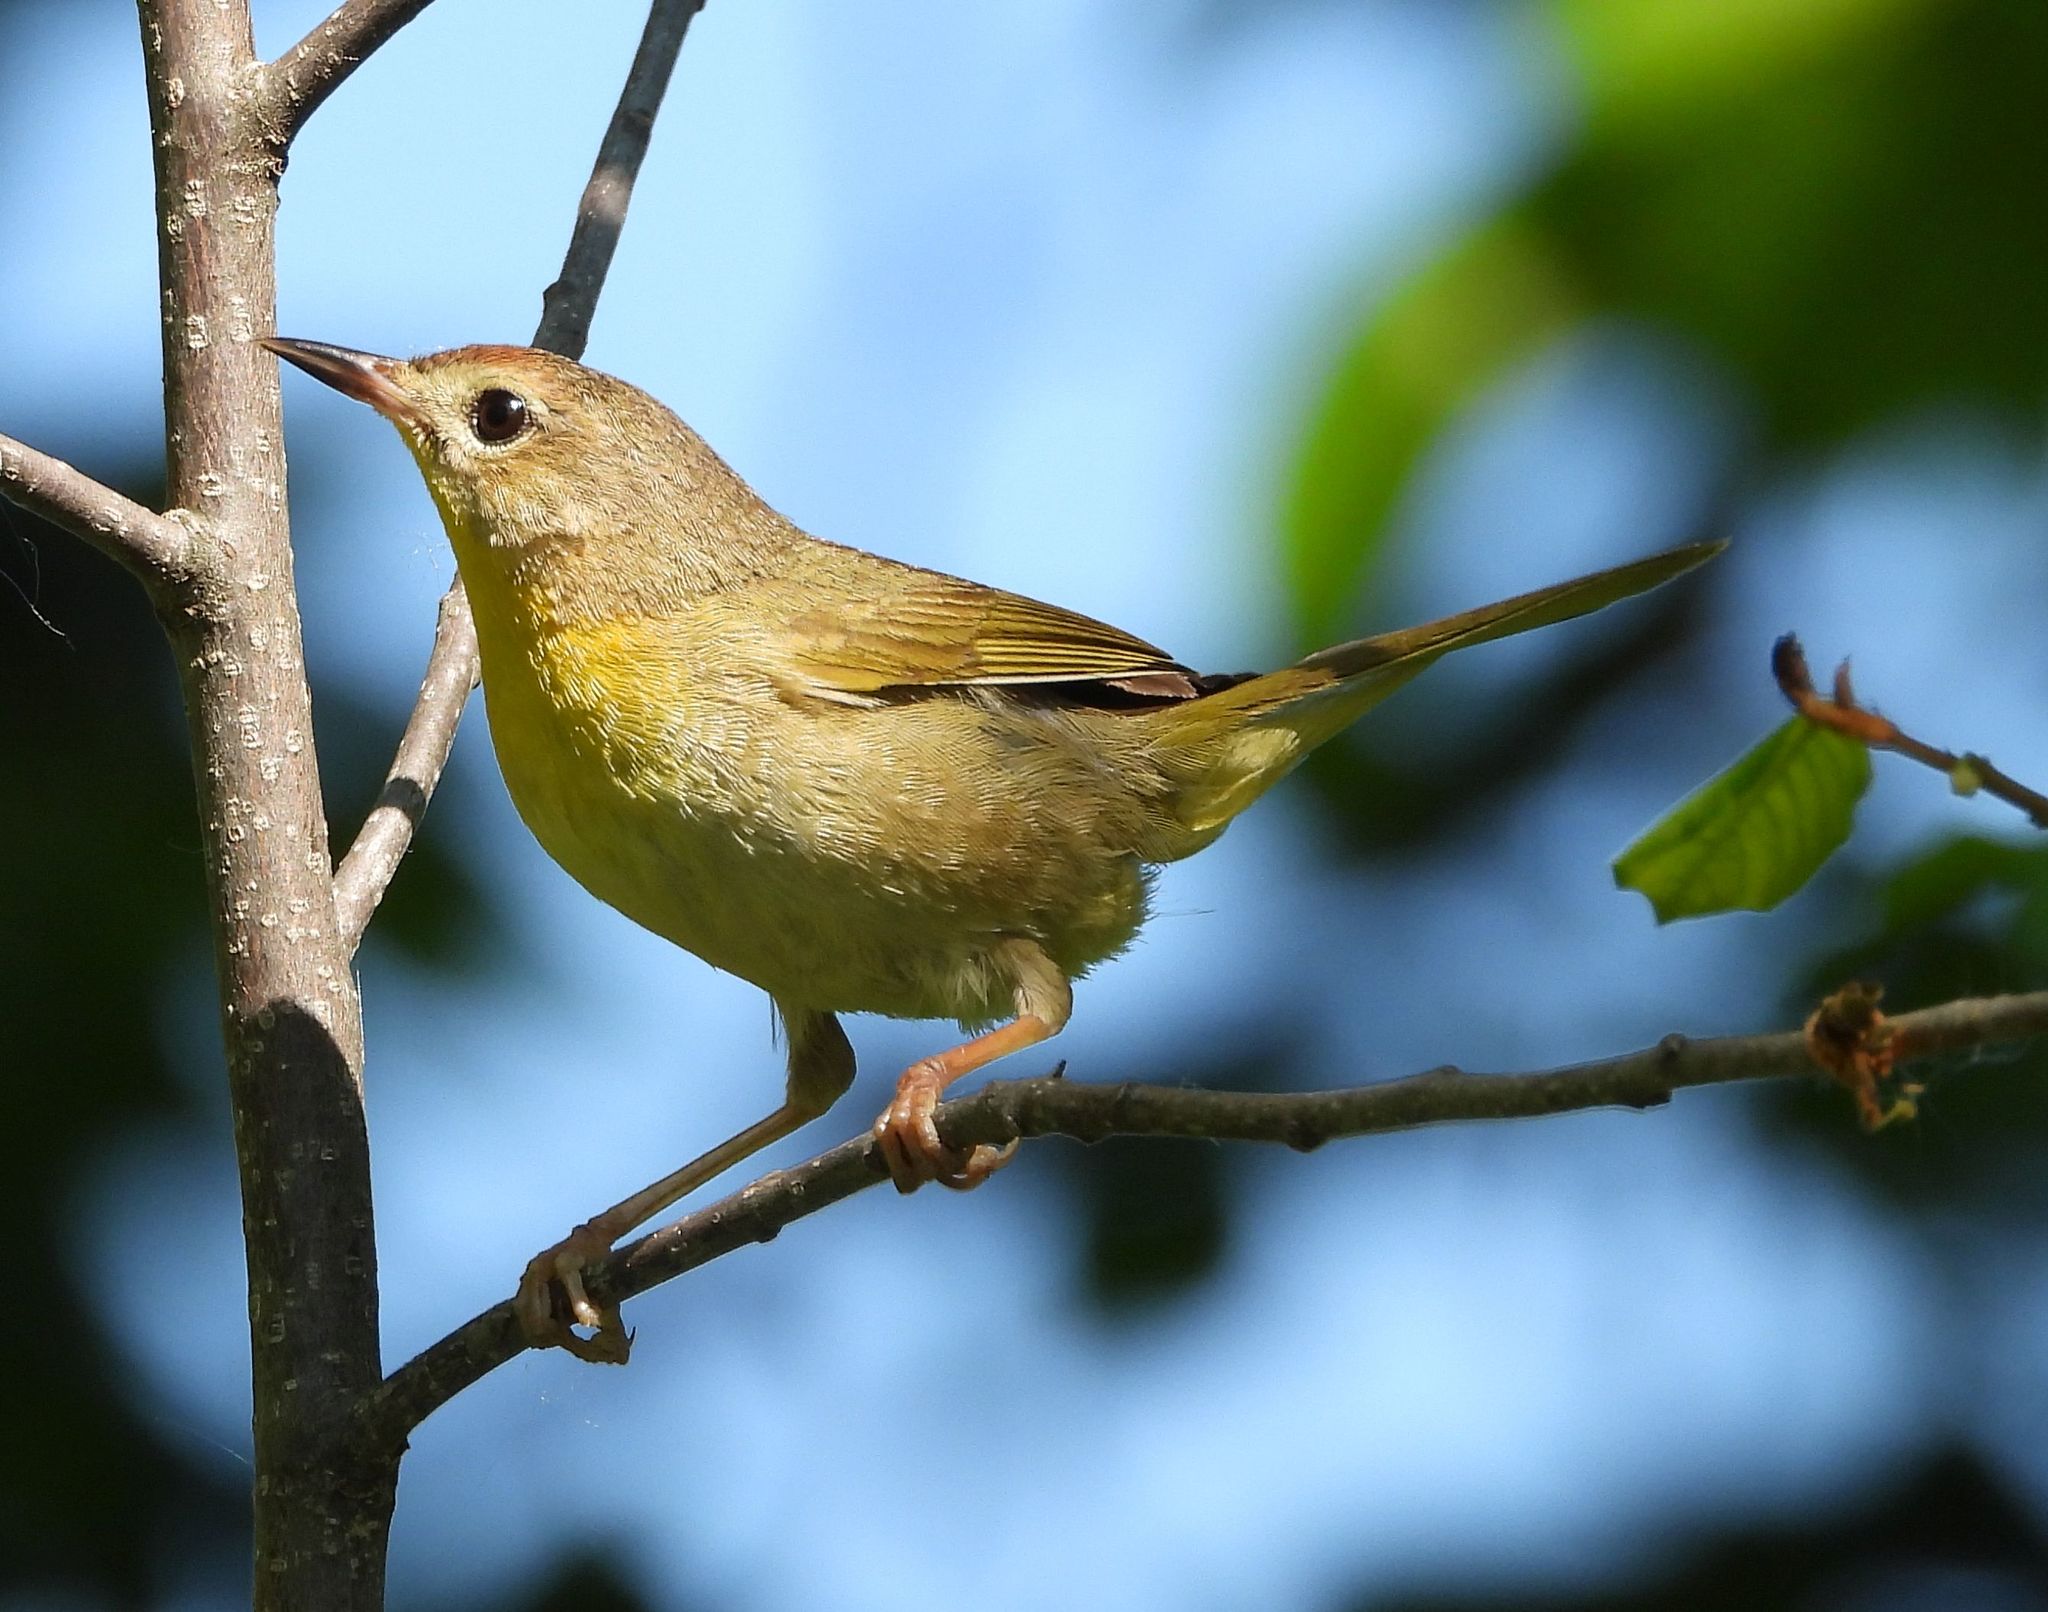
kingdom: Animalia
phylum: Chordata
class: Aves
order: Passeriformes
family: Parulidae
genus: Geothlypis
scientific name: Geothlypis trichas
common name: Common yellowthroat
